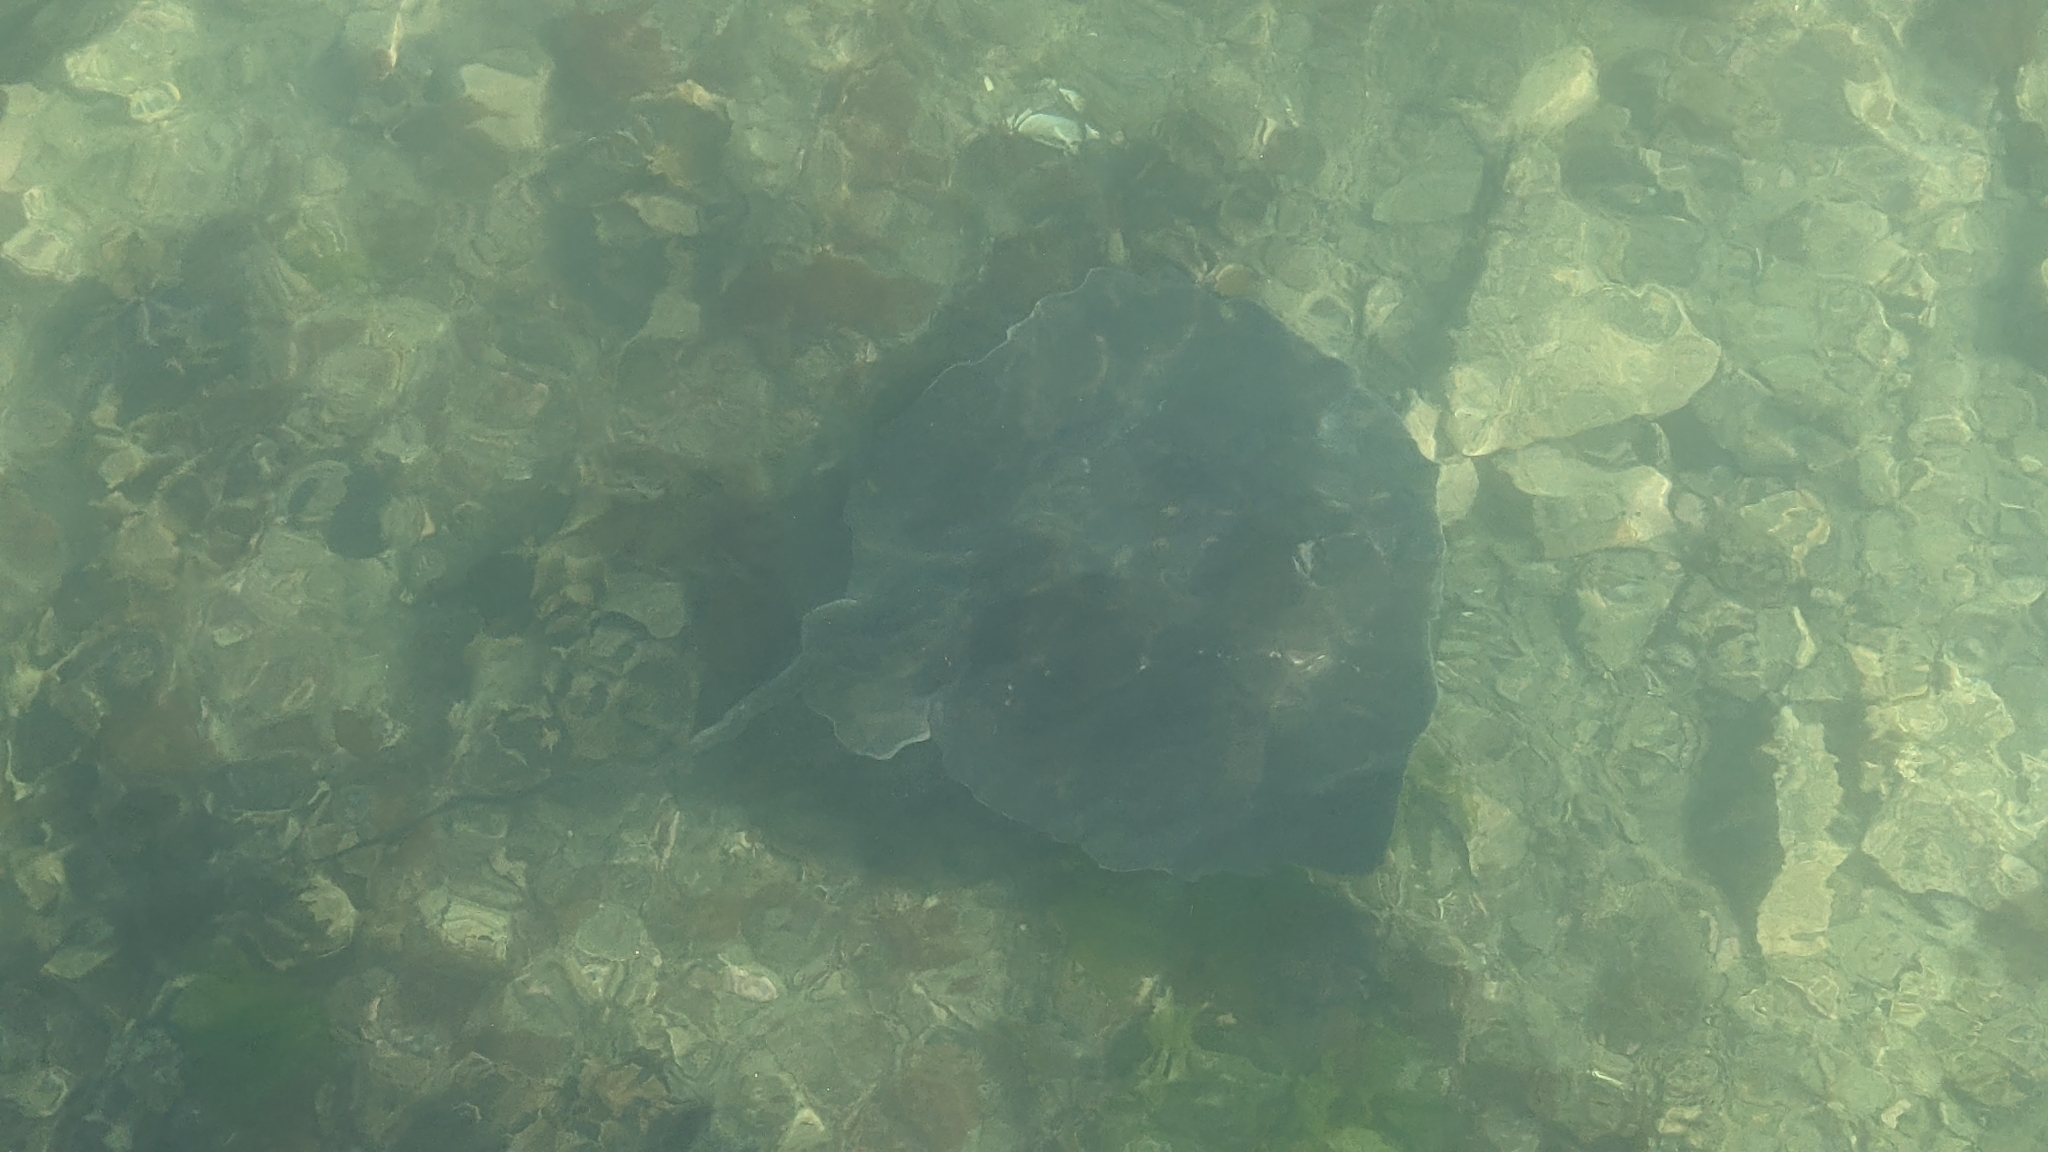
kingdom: Animalia
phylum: Chordata
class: Elasmobranchii
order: Myliobatiformes
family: Dasyatidae
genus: Bathytoshia
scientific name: Bathytoshia brevicaudata
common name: Short-tail stingray
